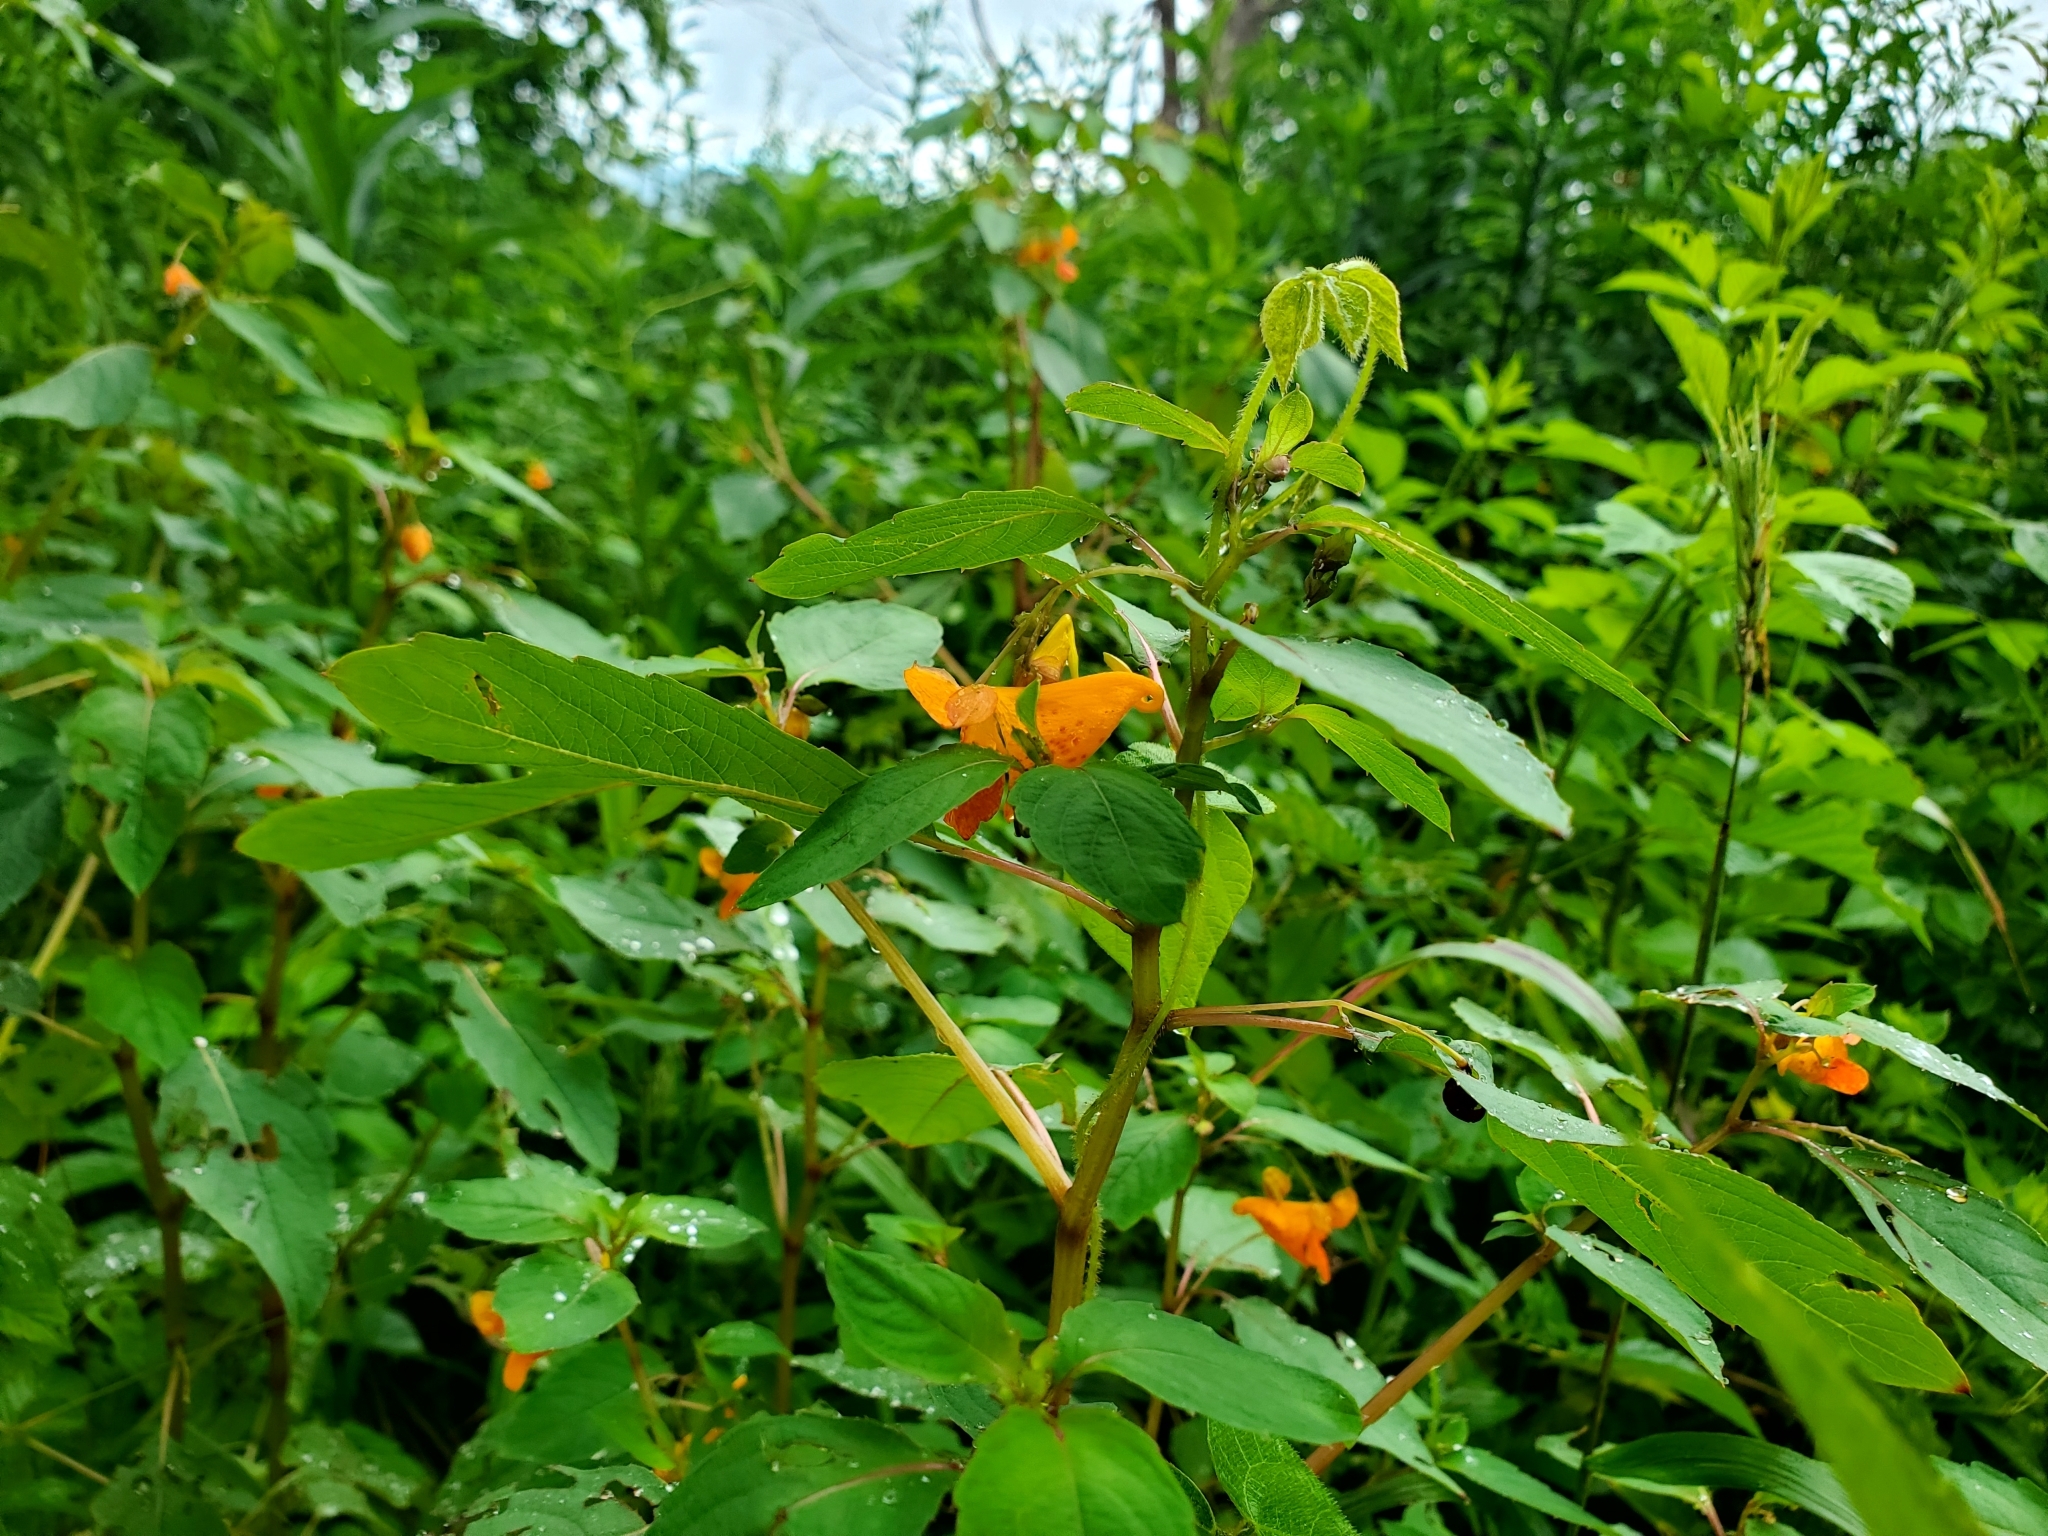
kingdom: Plantae
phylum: Tracheophyta
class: Magnoliopsida
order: Ericales
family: Balsaminaceae
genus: Impatiens
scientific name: Impatiens capensis
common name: Orange balsam
